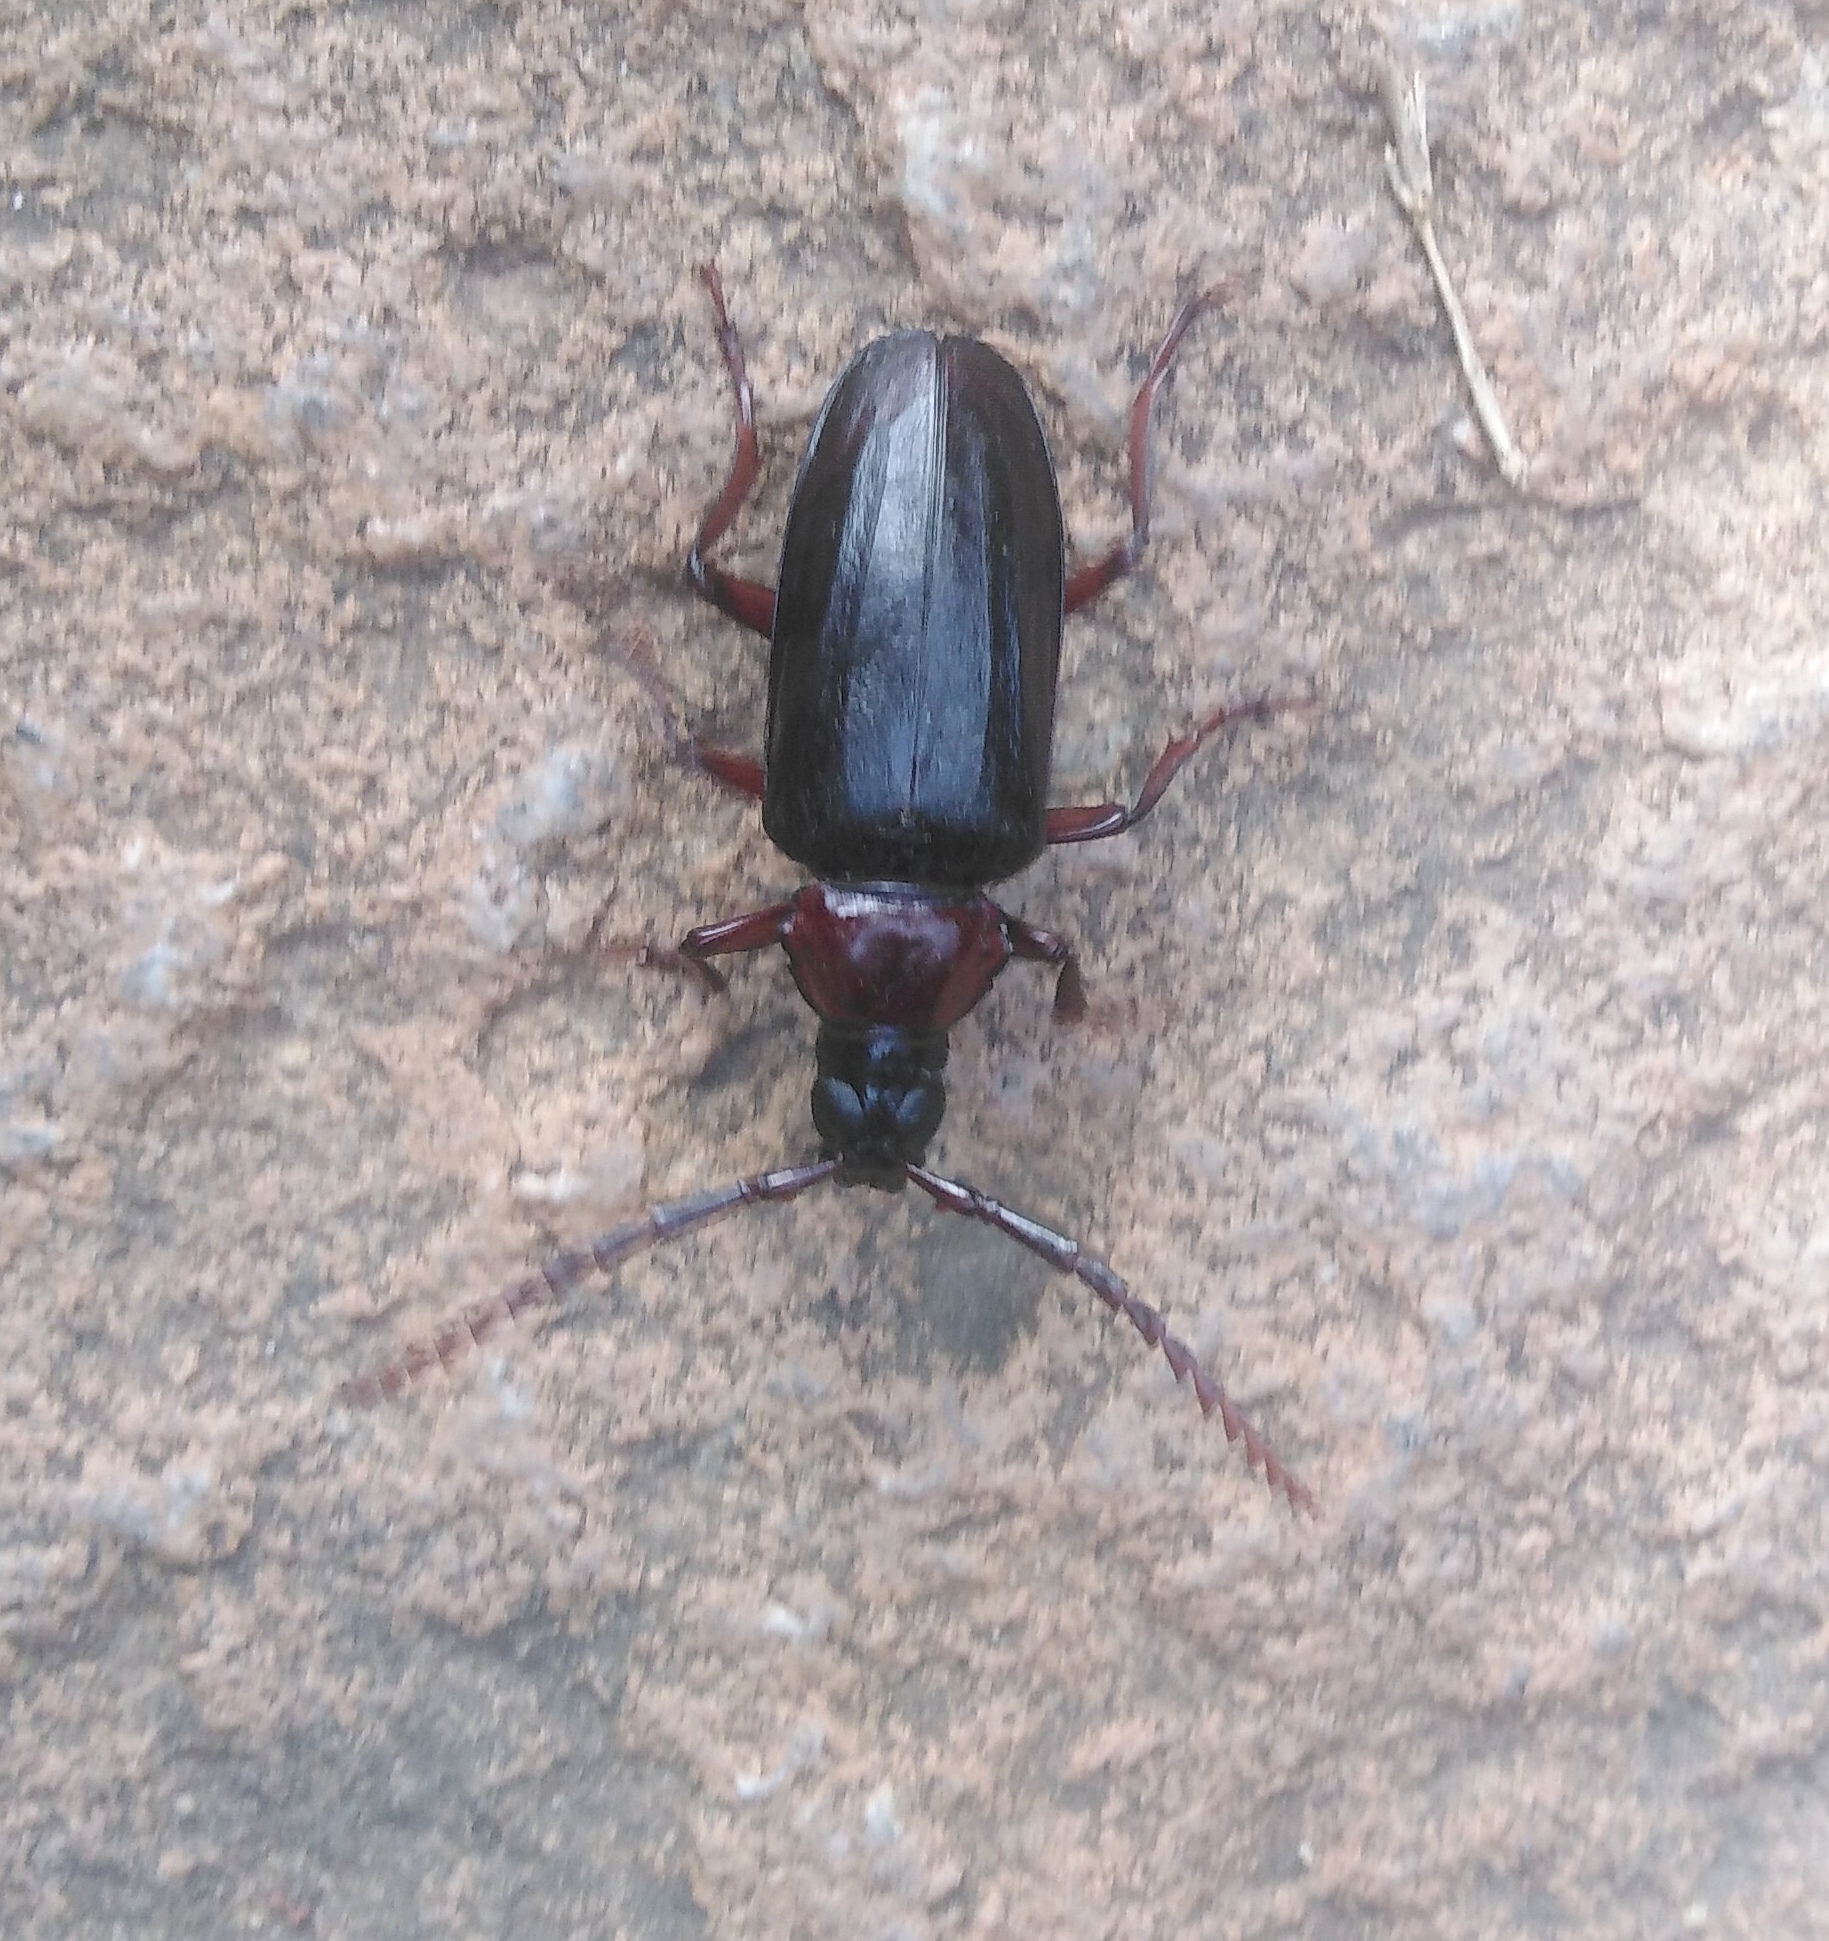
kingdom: Animalia
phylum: Arthropoda
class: Insecta
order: Coleoptera
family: Cerambycidae
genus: Dorysthenes
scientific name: Dorysthenes rostratus
